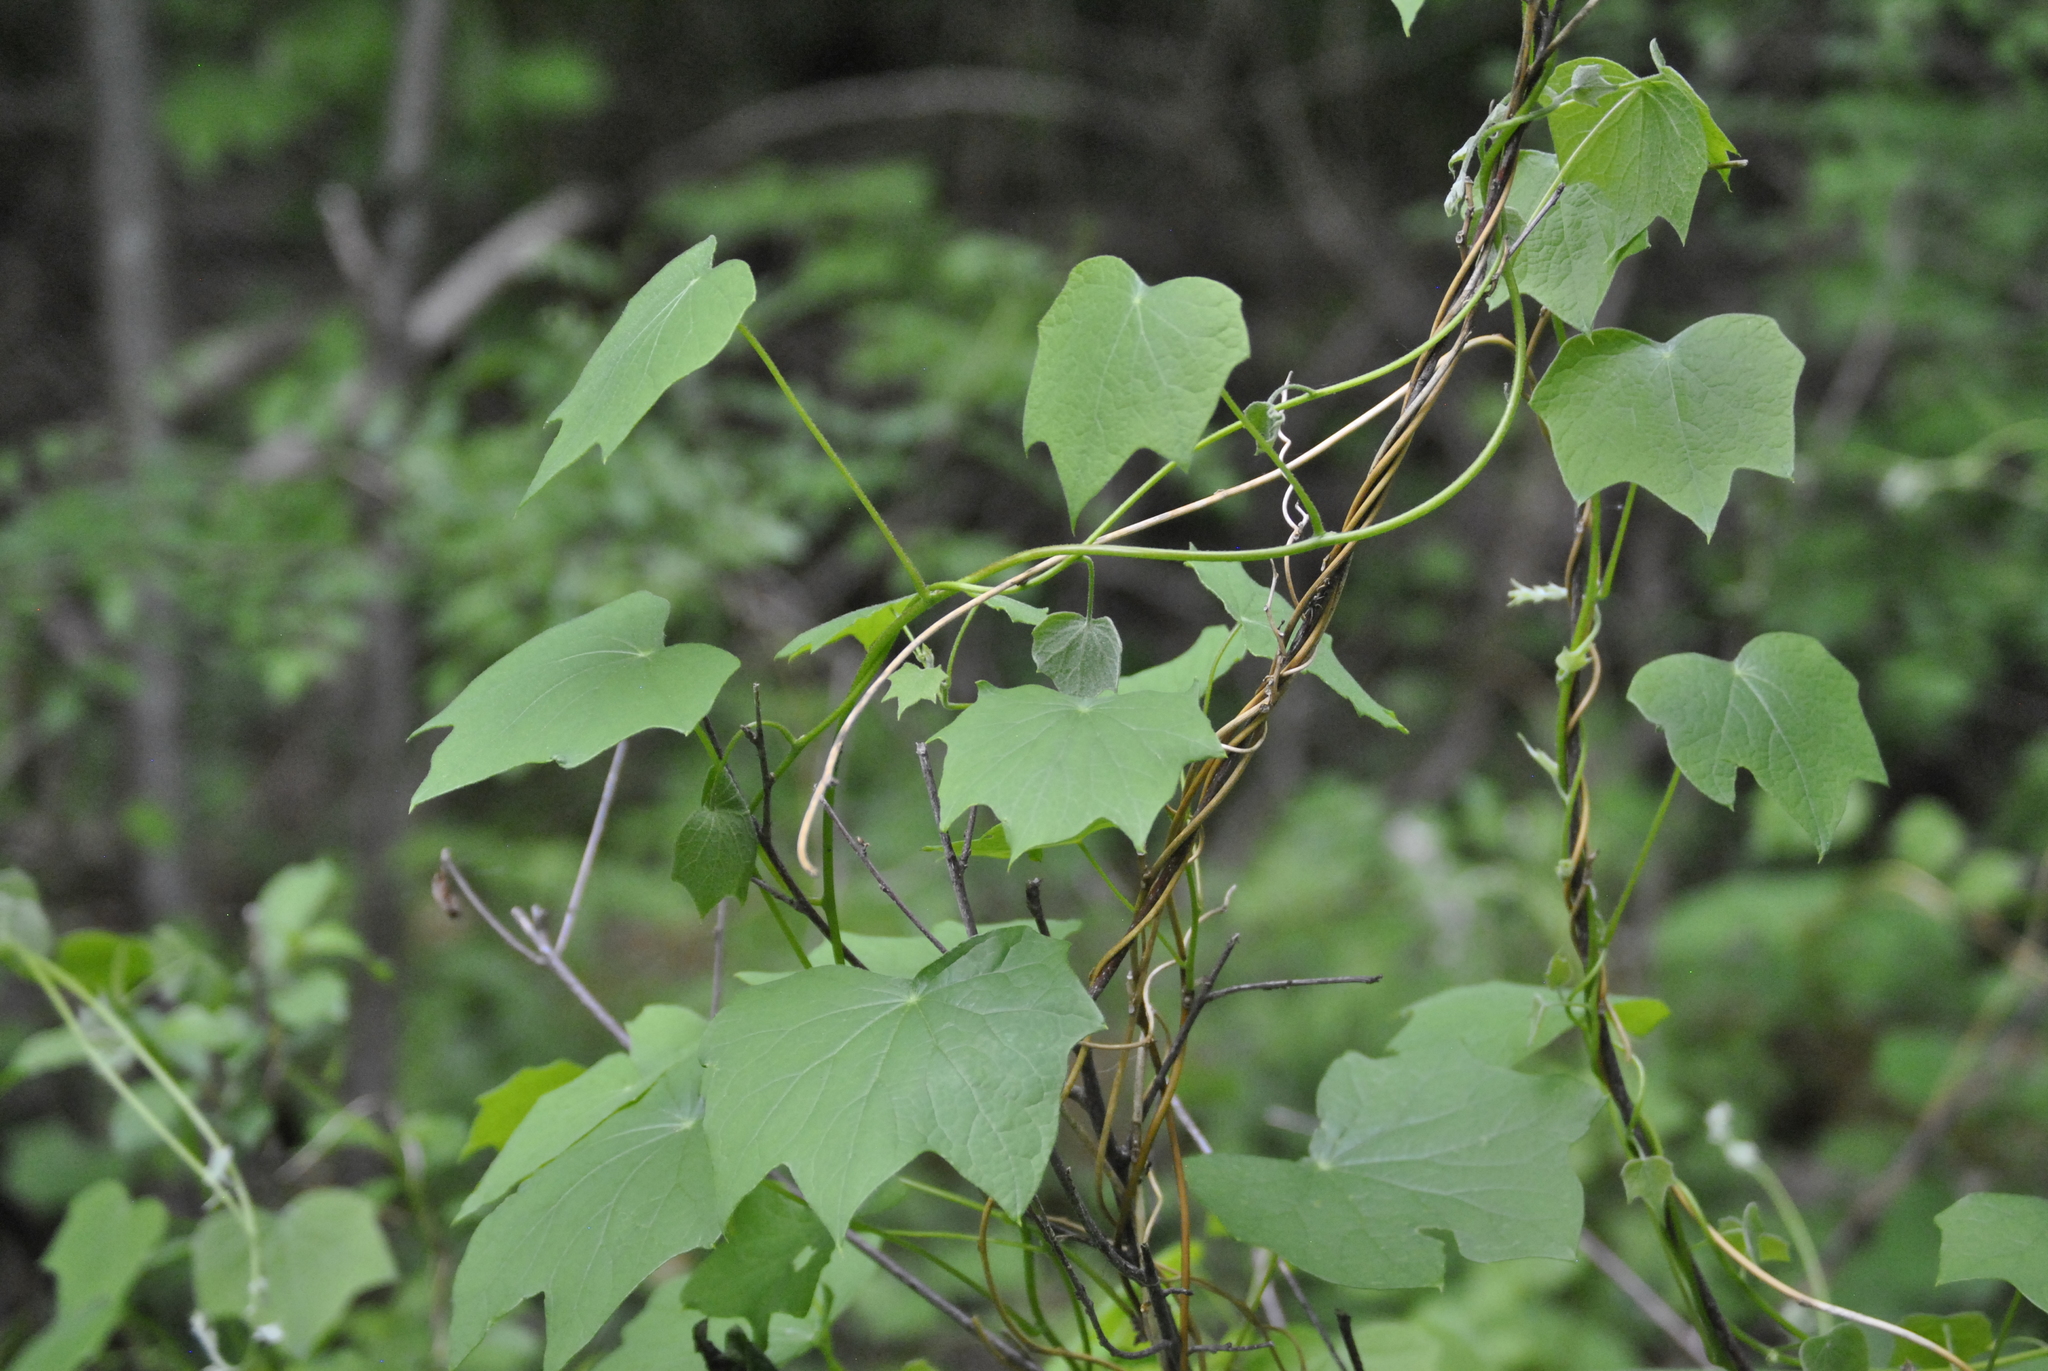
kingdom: Plantae
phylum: Tracheophyta
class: Magnoliopsida
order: Ranunculales
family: Menispermaceae
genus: Menispermum
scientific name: Menispermum canadense
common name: Moonseed
